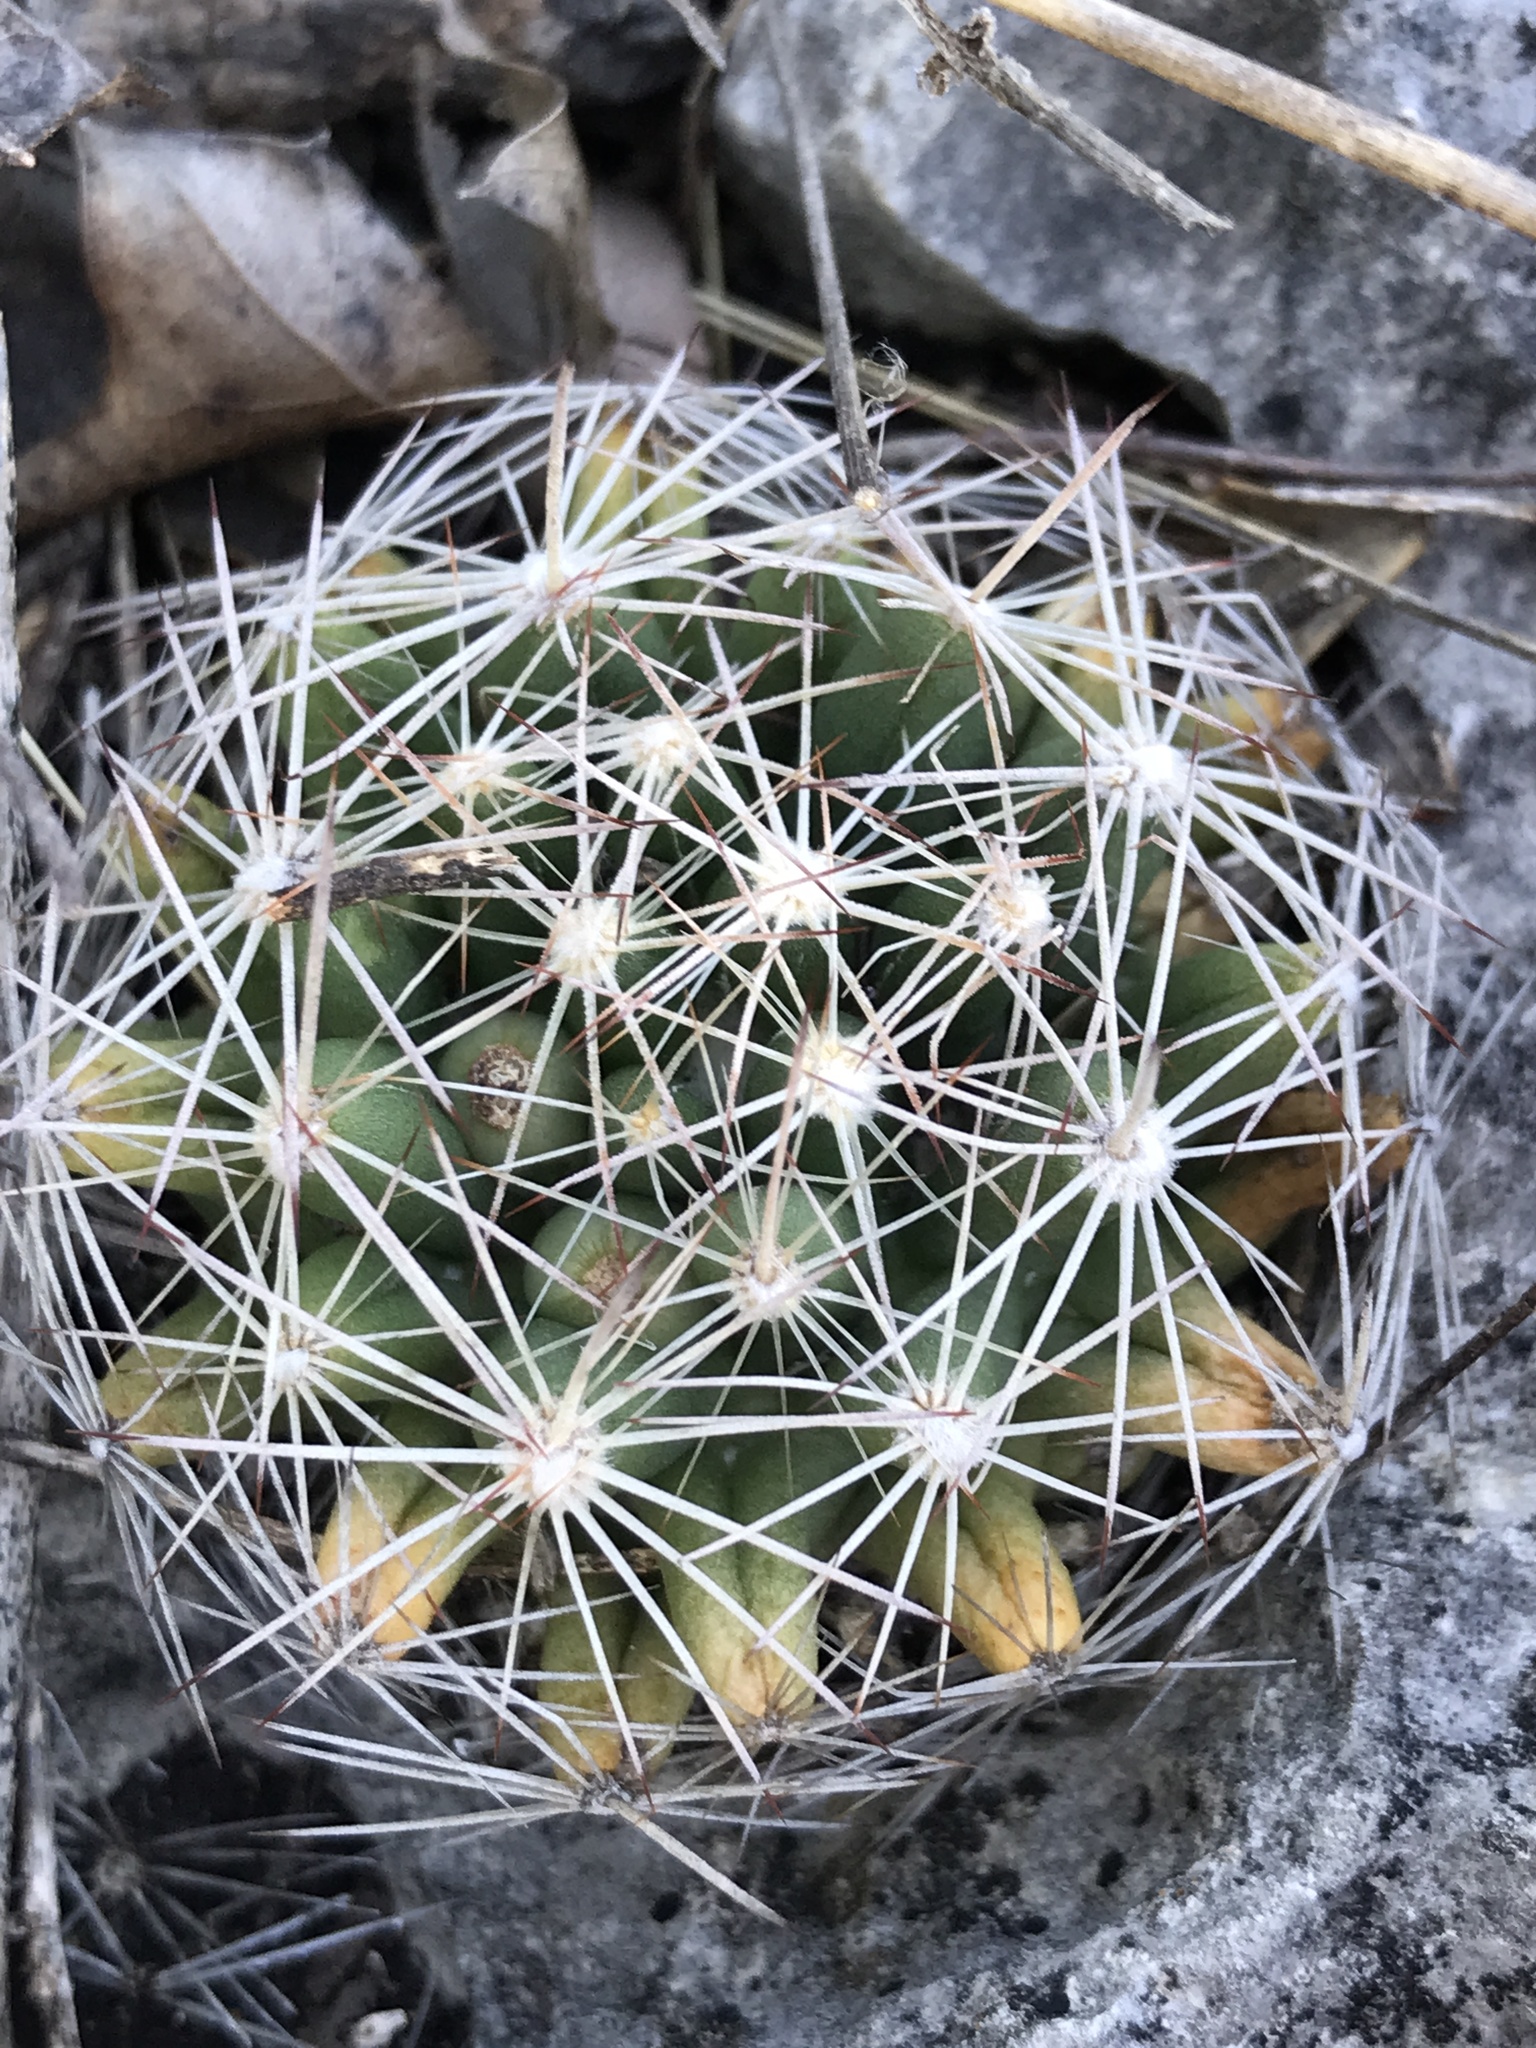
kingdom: Plantae
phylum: Tracheophyta
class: Magnoliopsida
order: Caryophyllales
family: Cactaceae
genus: Pelecyphora
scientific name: Pelecyphora missouriensis
